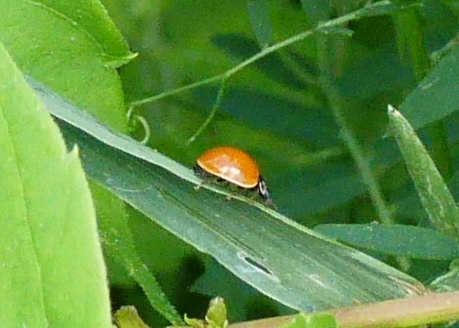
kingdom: Animalia
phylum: Arthropoda
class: Insecta
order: Coleoptera
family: Coccinellidae
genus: Cycloneda
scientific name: Cycloneda munda
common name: Polished lady beetle
